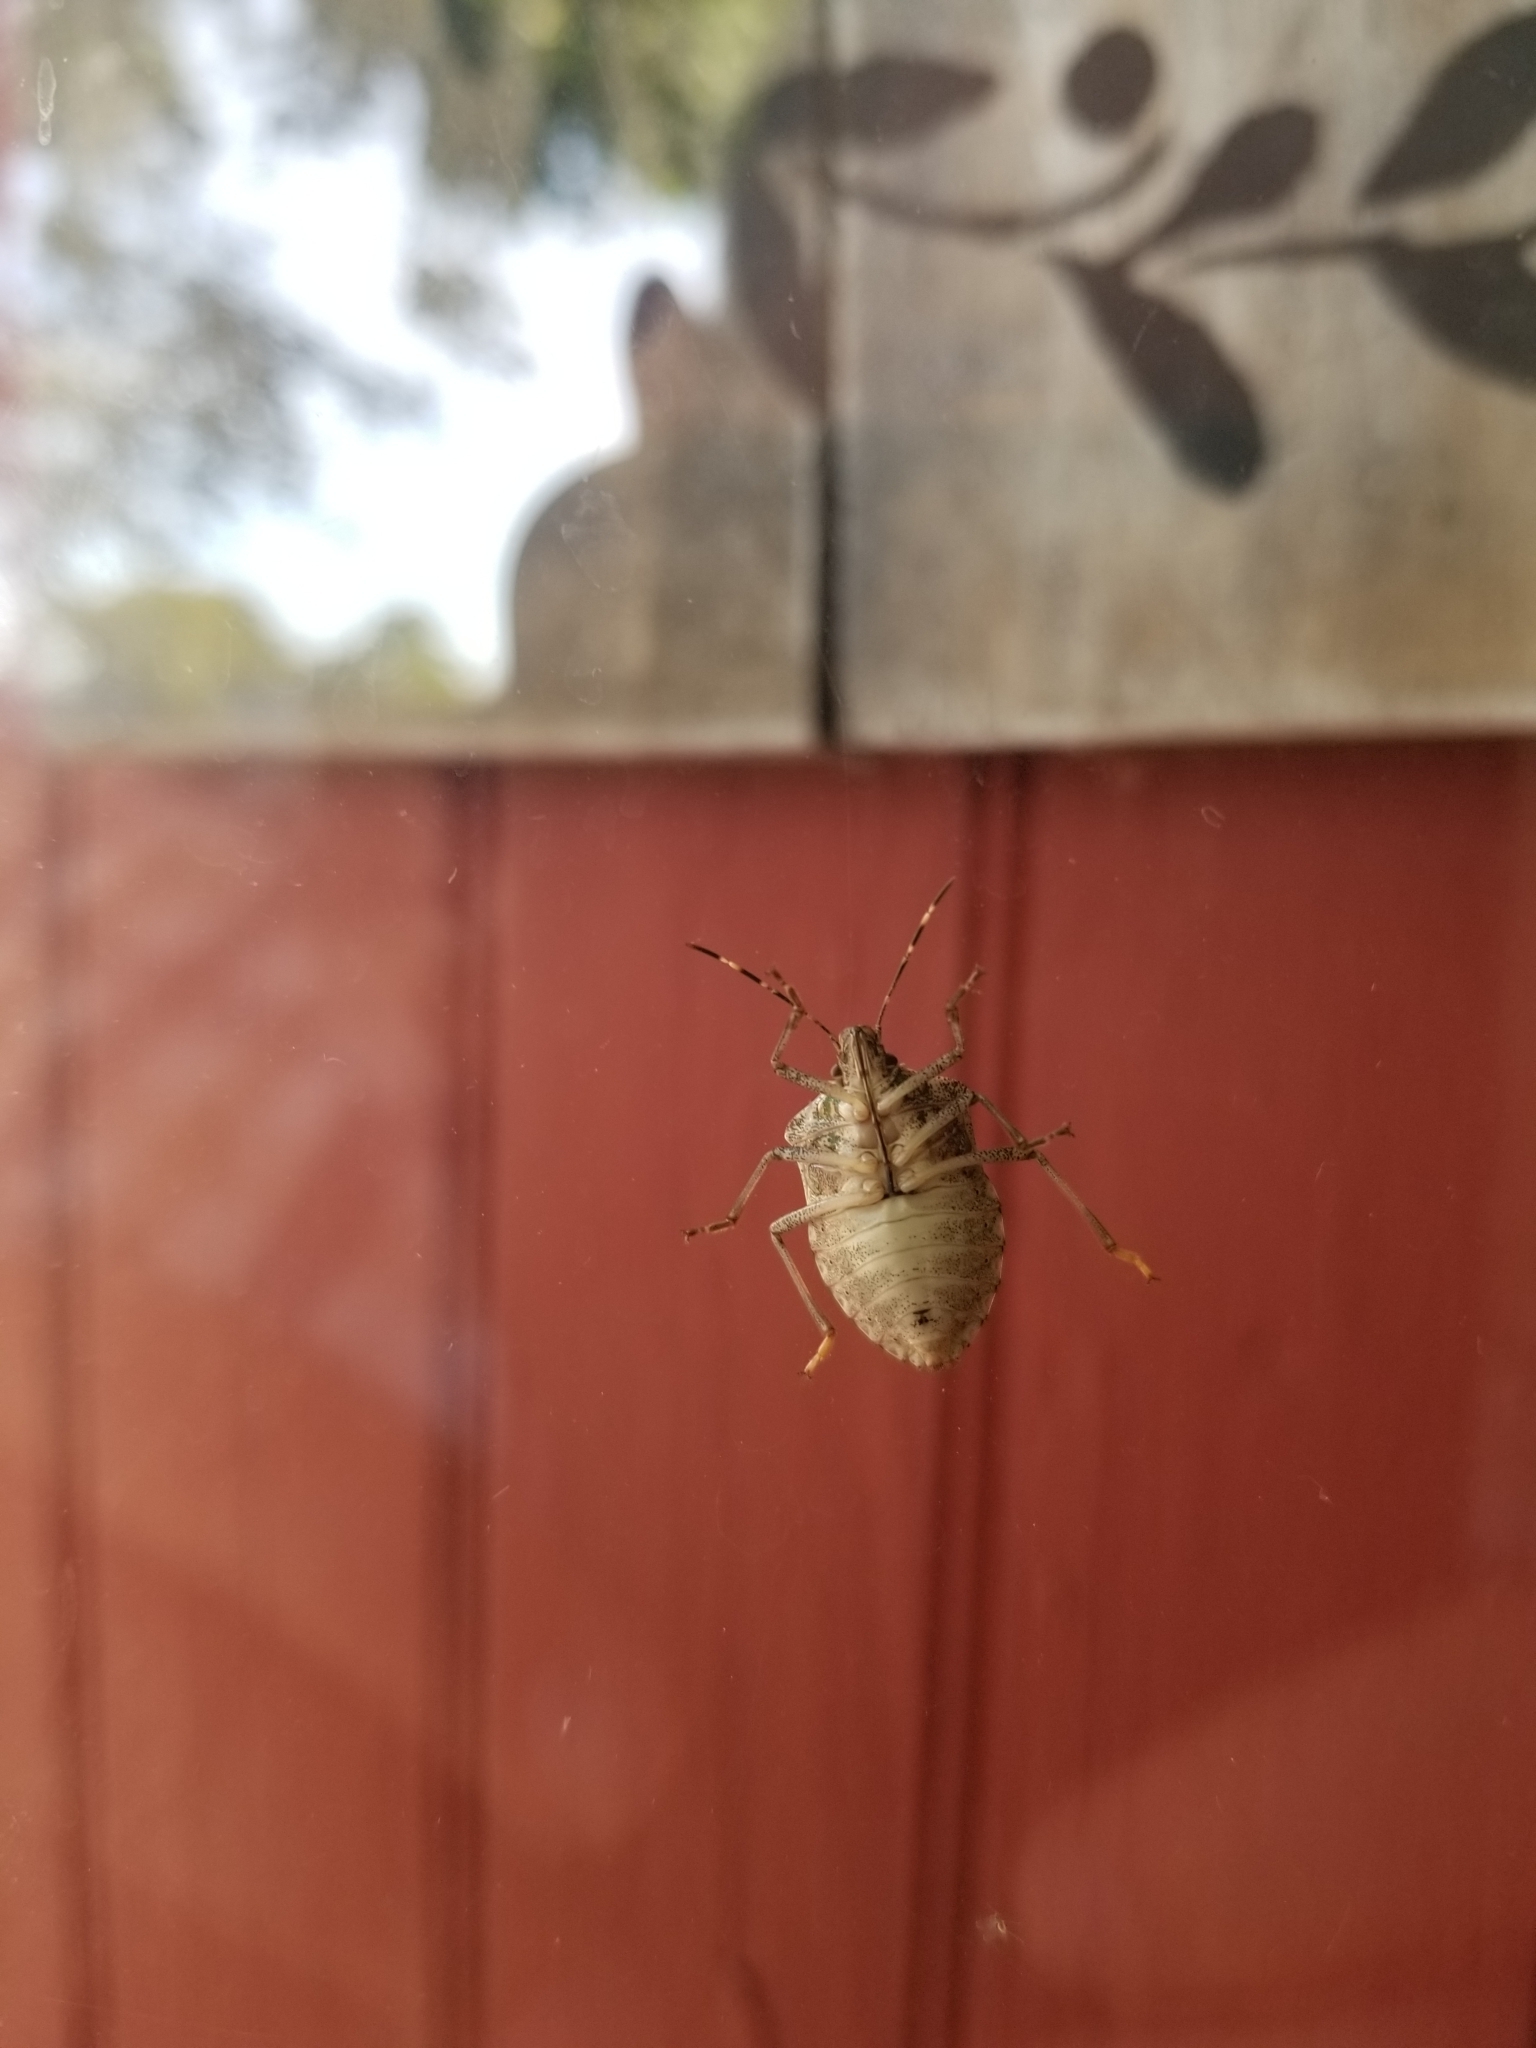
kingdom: Animalia
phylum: Arthropoda
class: Insecta
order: Hemiptera
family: Pentatomidae
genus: Halyomorpha
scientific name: Halyomorpha halys
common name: Brown marmorated stink bug
